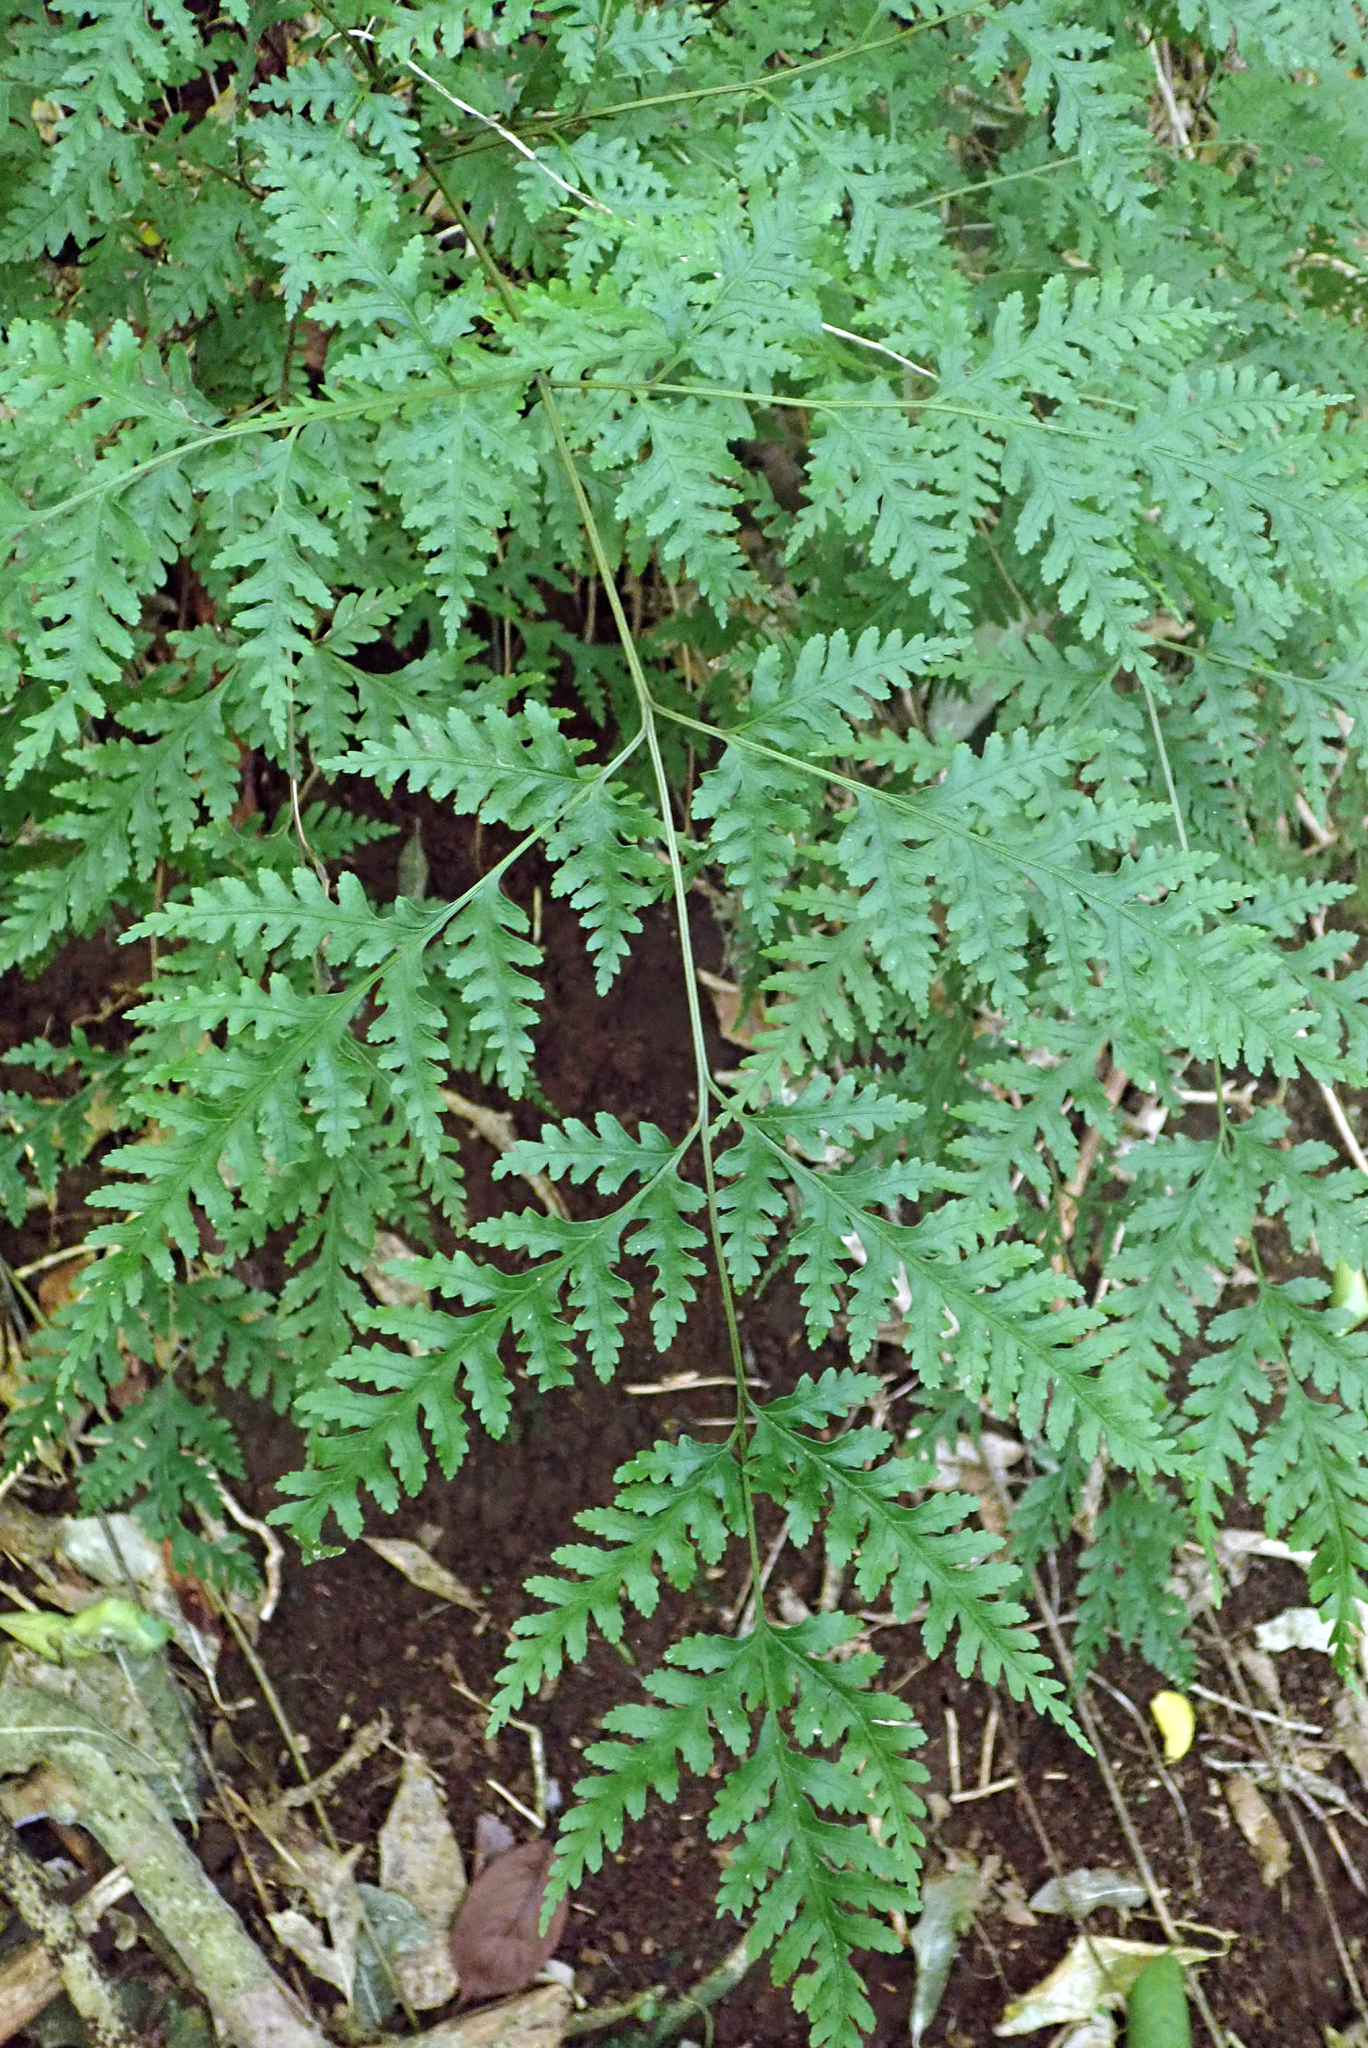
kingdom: Plantae
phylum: Tracheophyta
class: Polypodiopsida
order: Polypodiales
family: Pteridaceae
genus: Pteris
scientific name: Pteris macilenta
